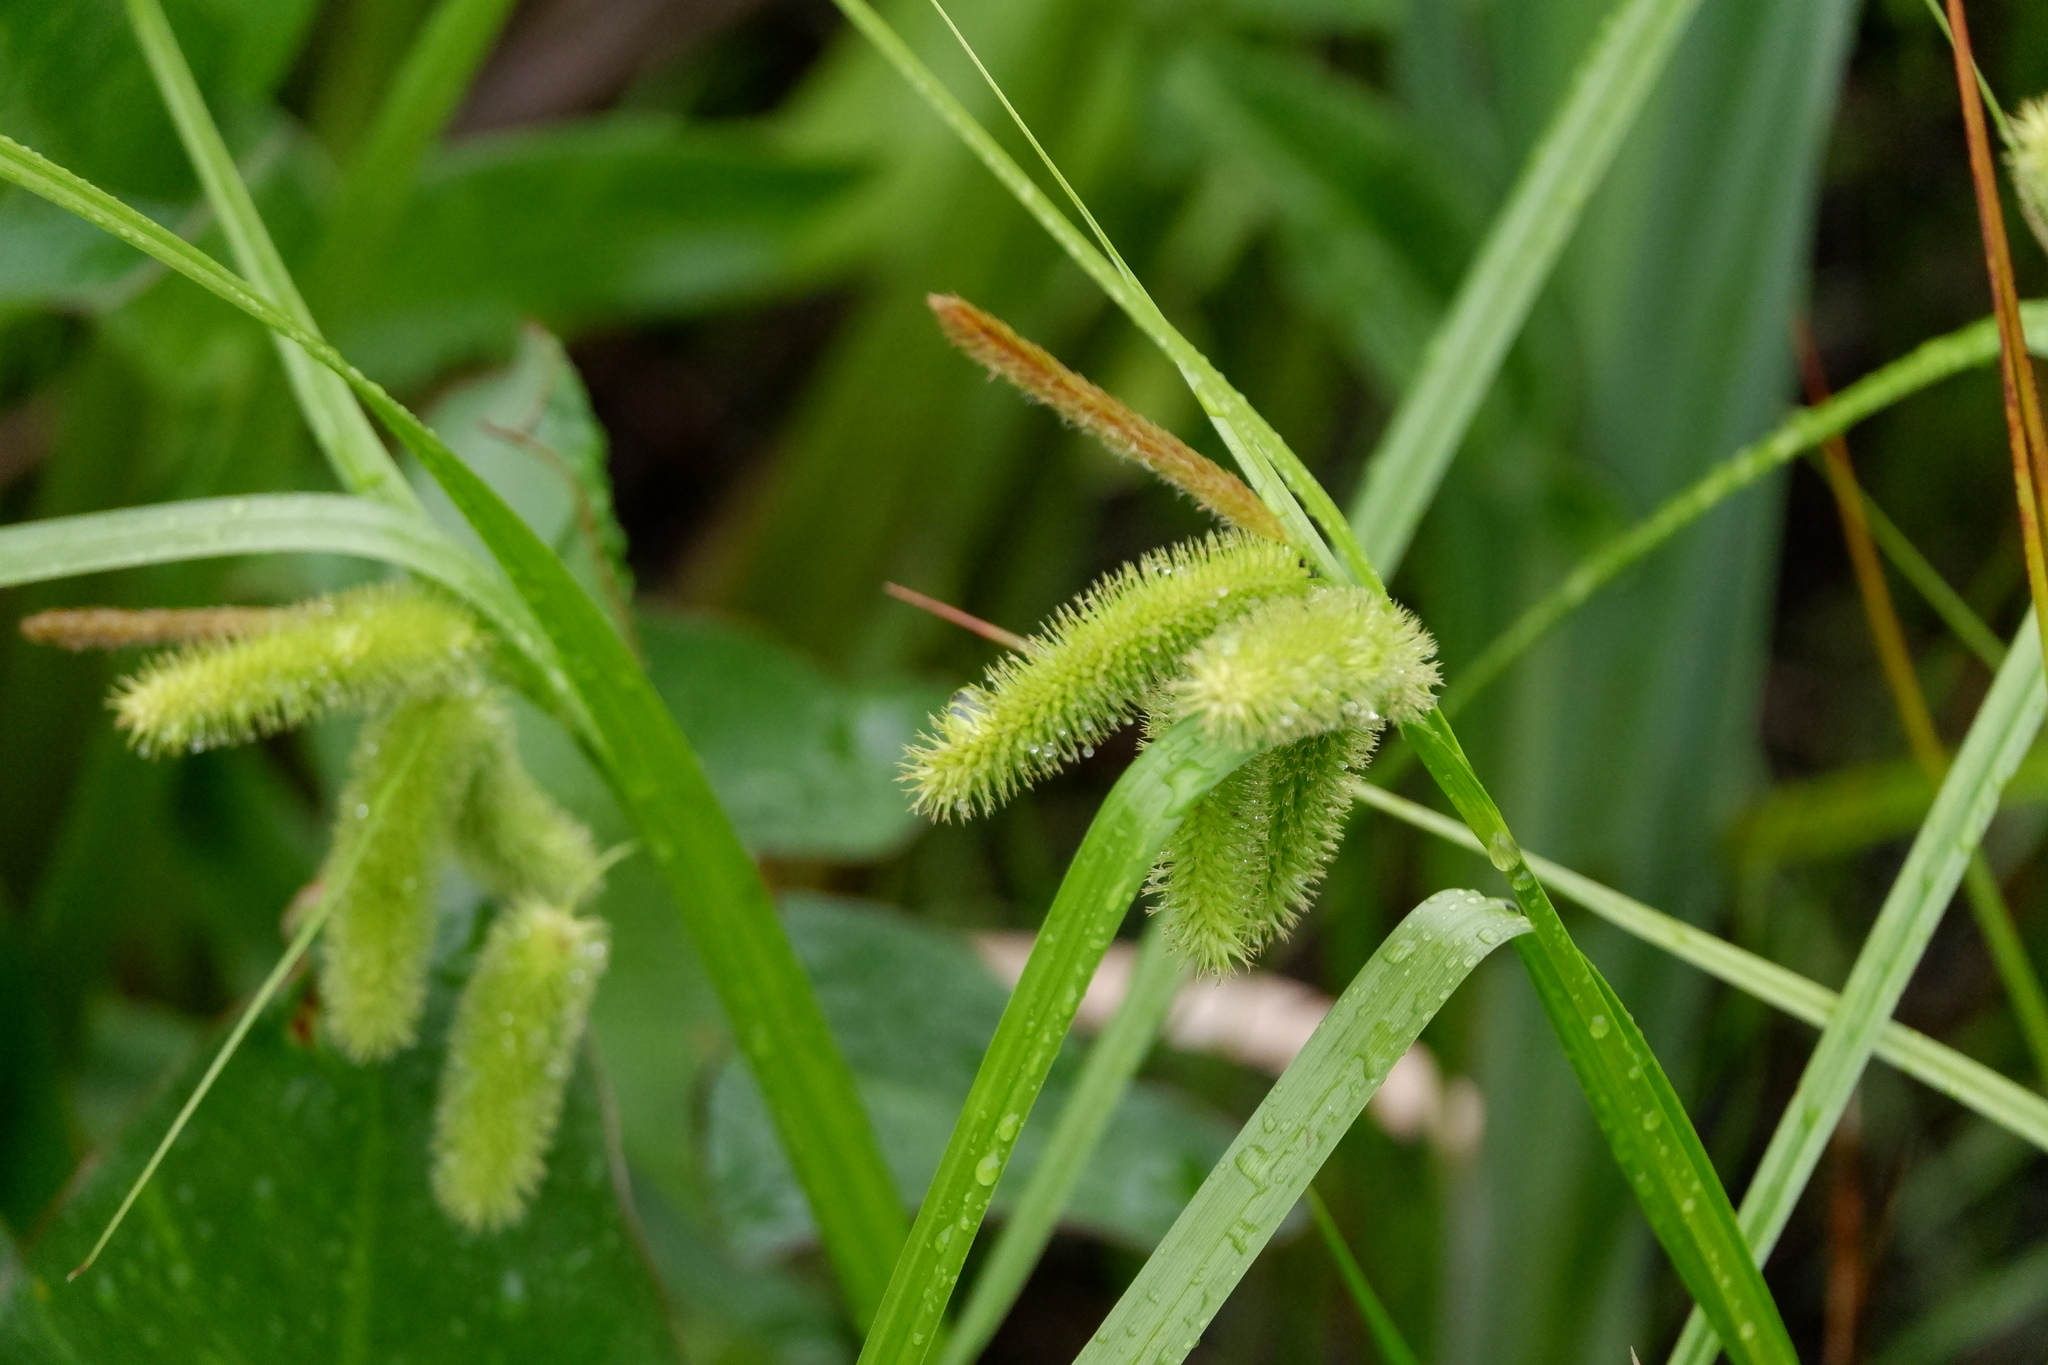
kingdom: Plantae
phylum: Tracheophyta
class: Liliopsida
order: Poales
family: Cyperaceae
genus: Carex
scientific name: Carex comosa
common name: Bristly sedge
